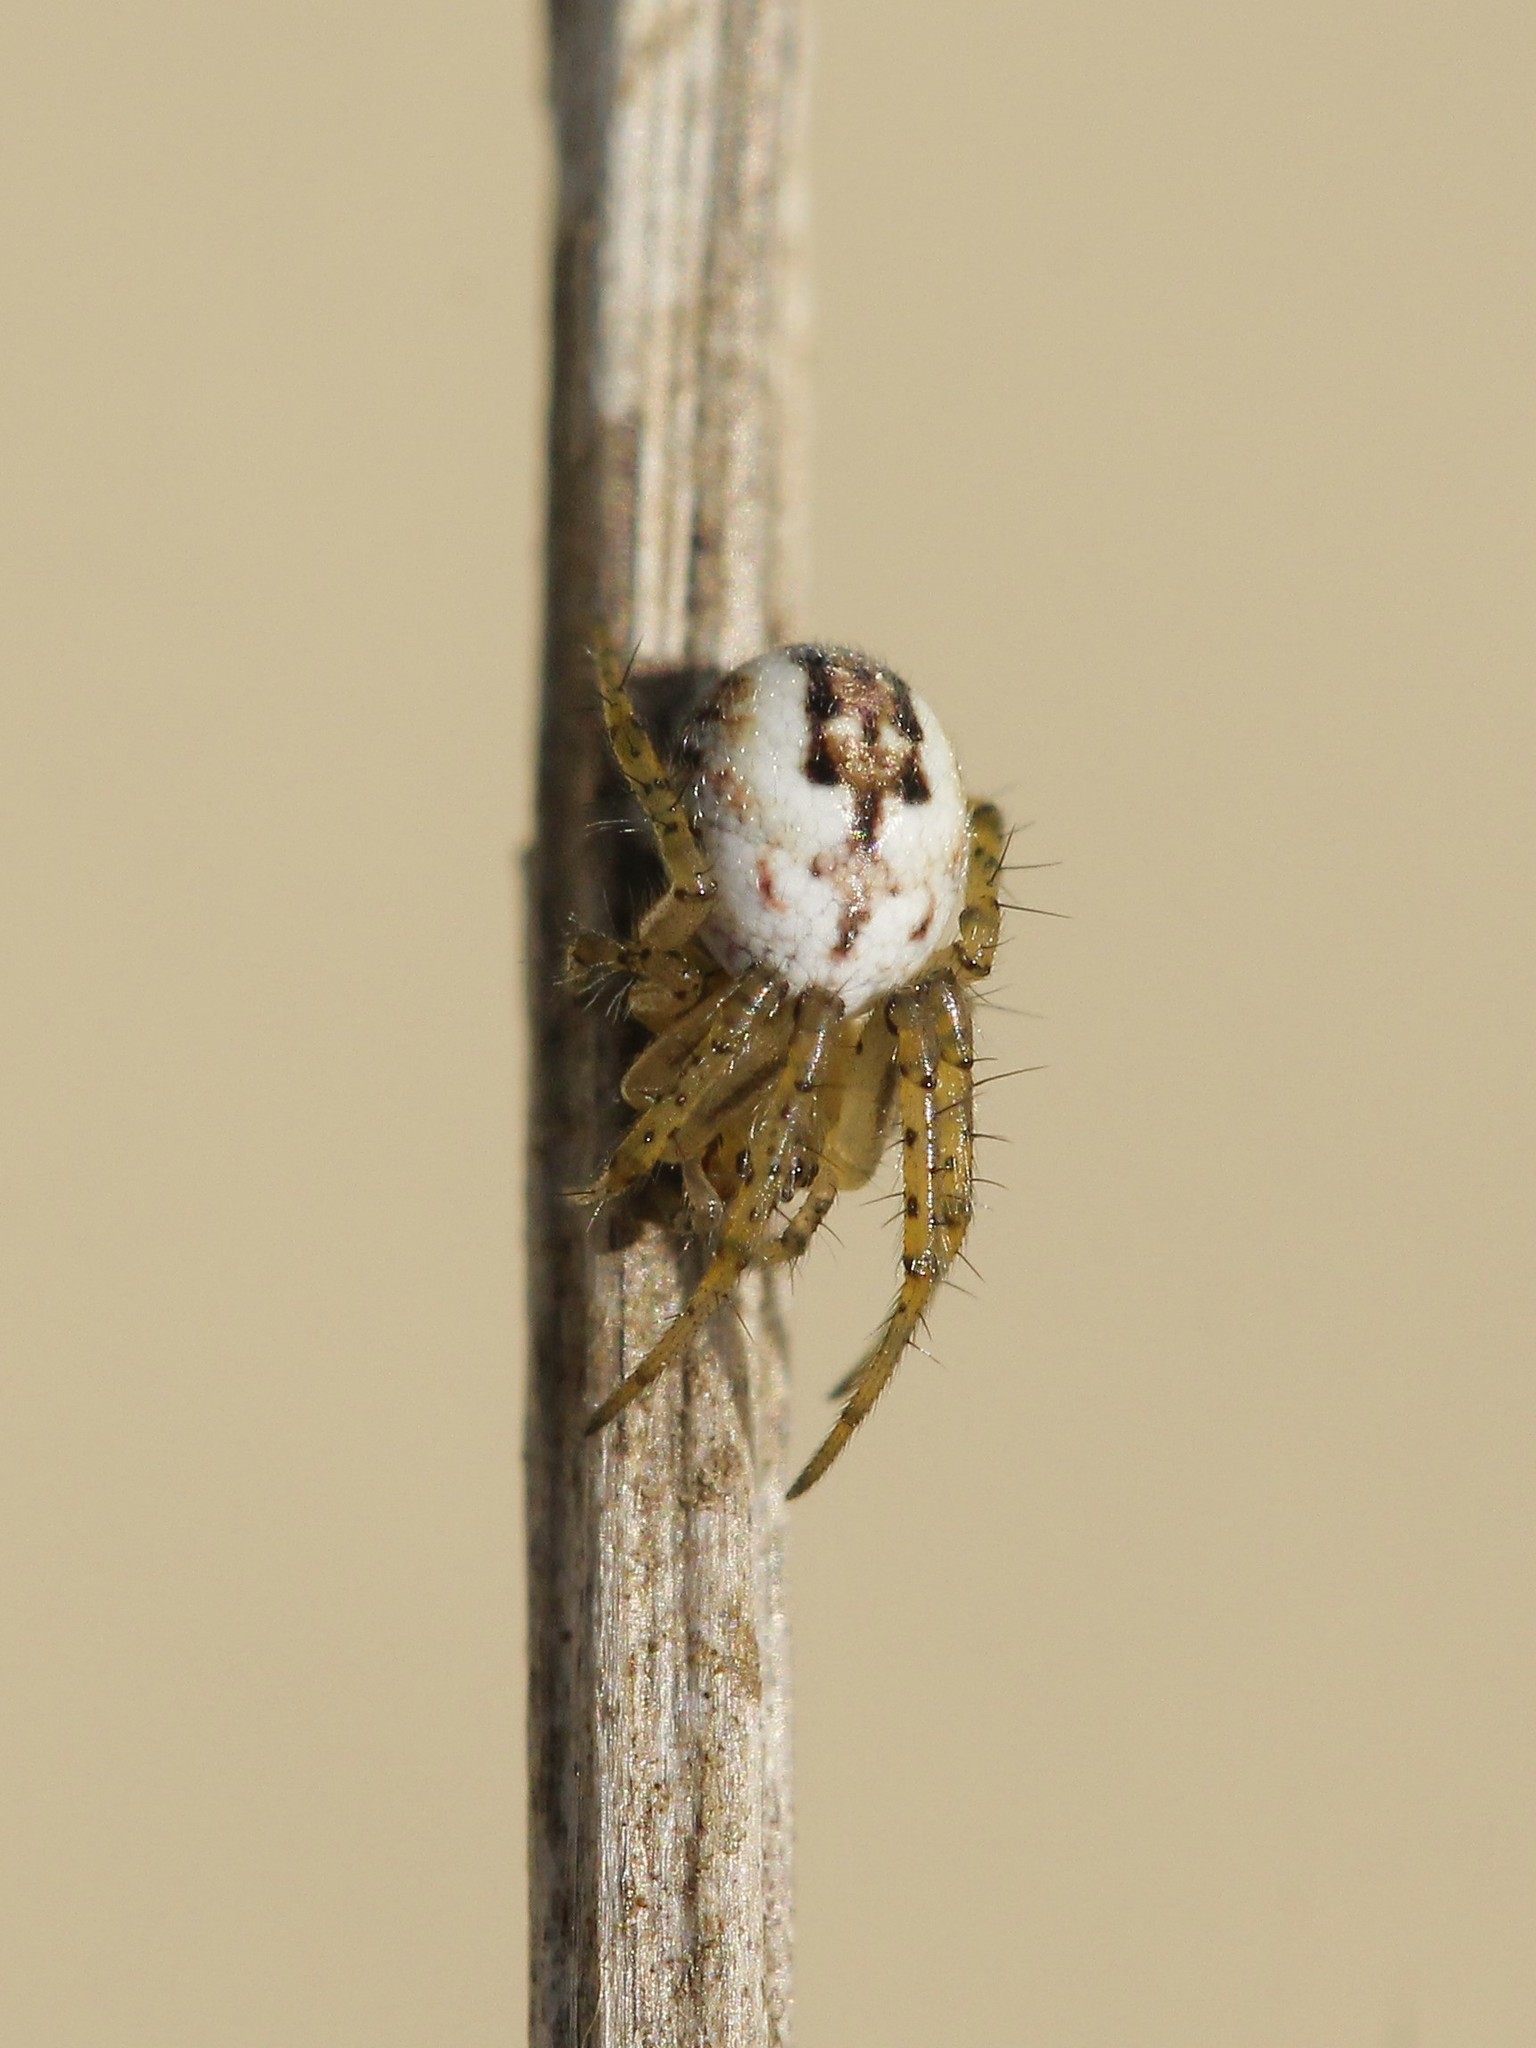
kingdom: Animalia
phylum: Arthropoda
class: Arachnida
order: Araneae
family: Araneidae
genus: Mangora
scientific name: Mangora acalypha
